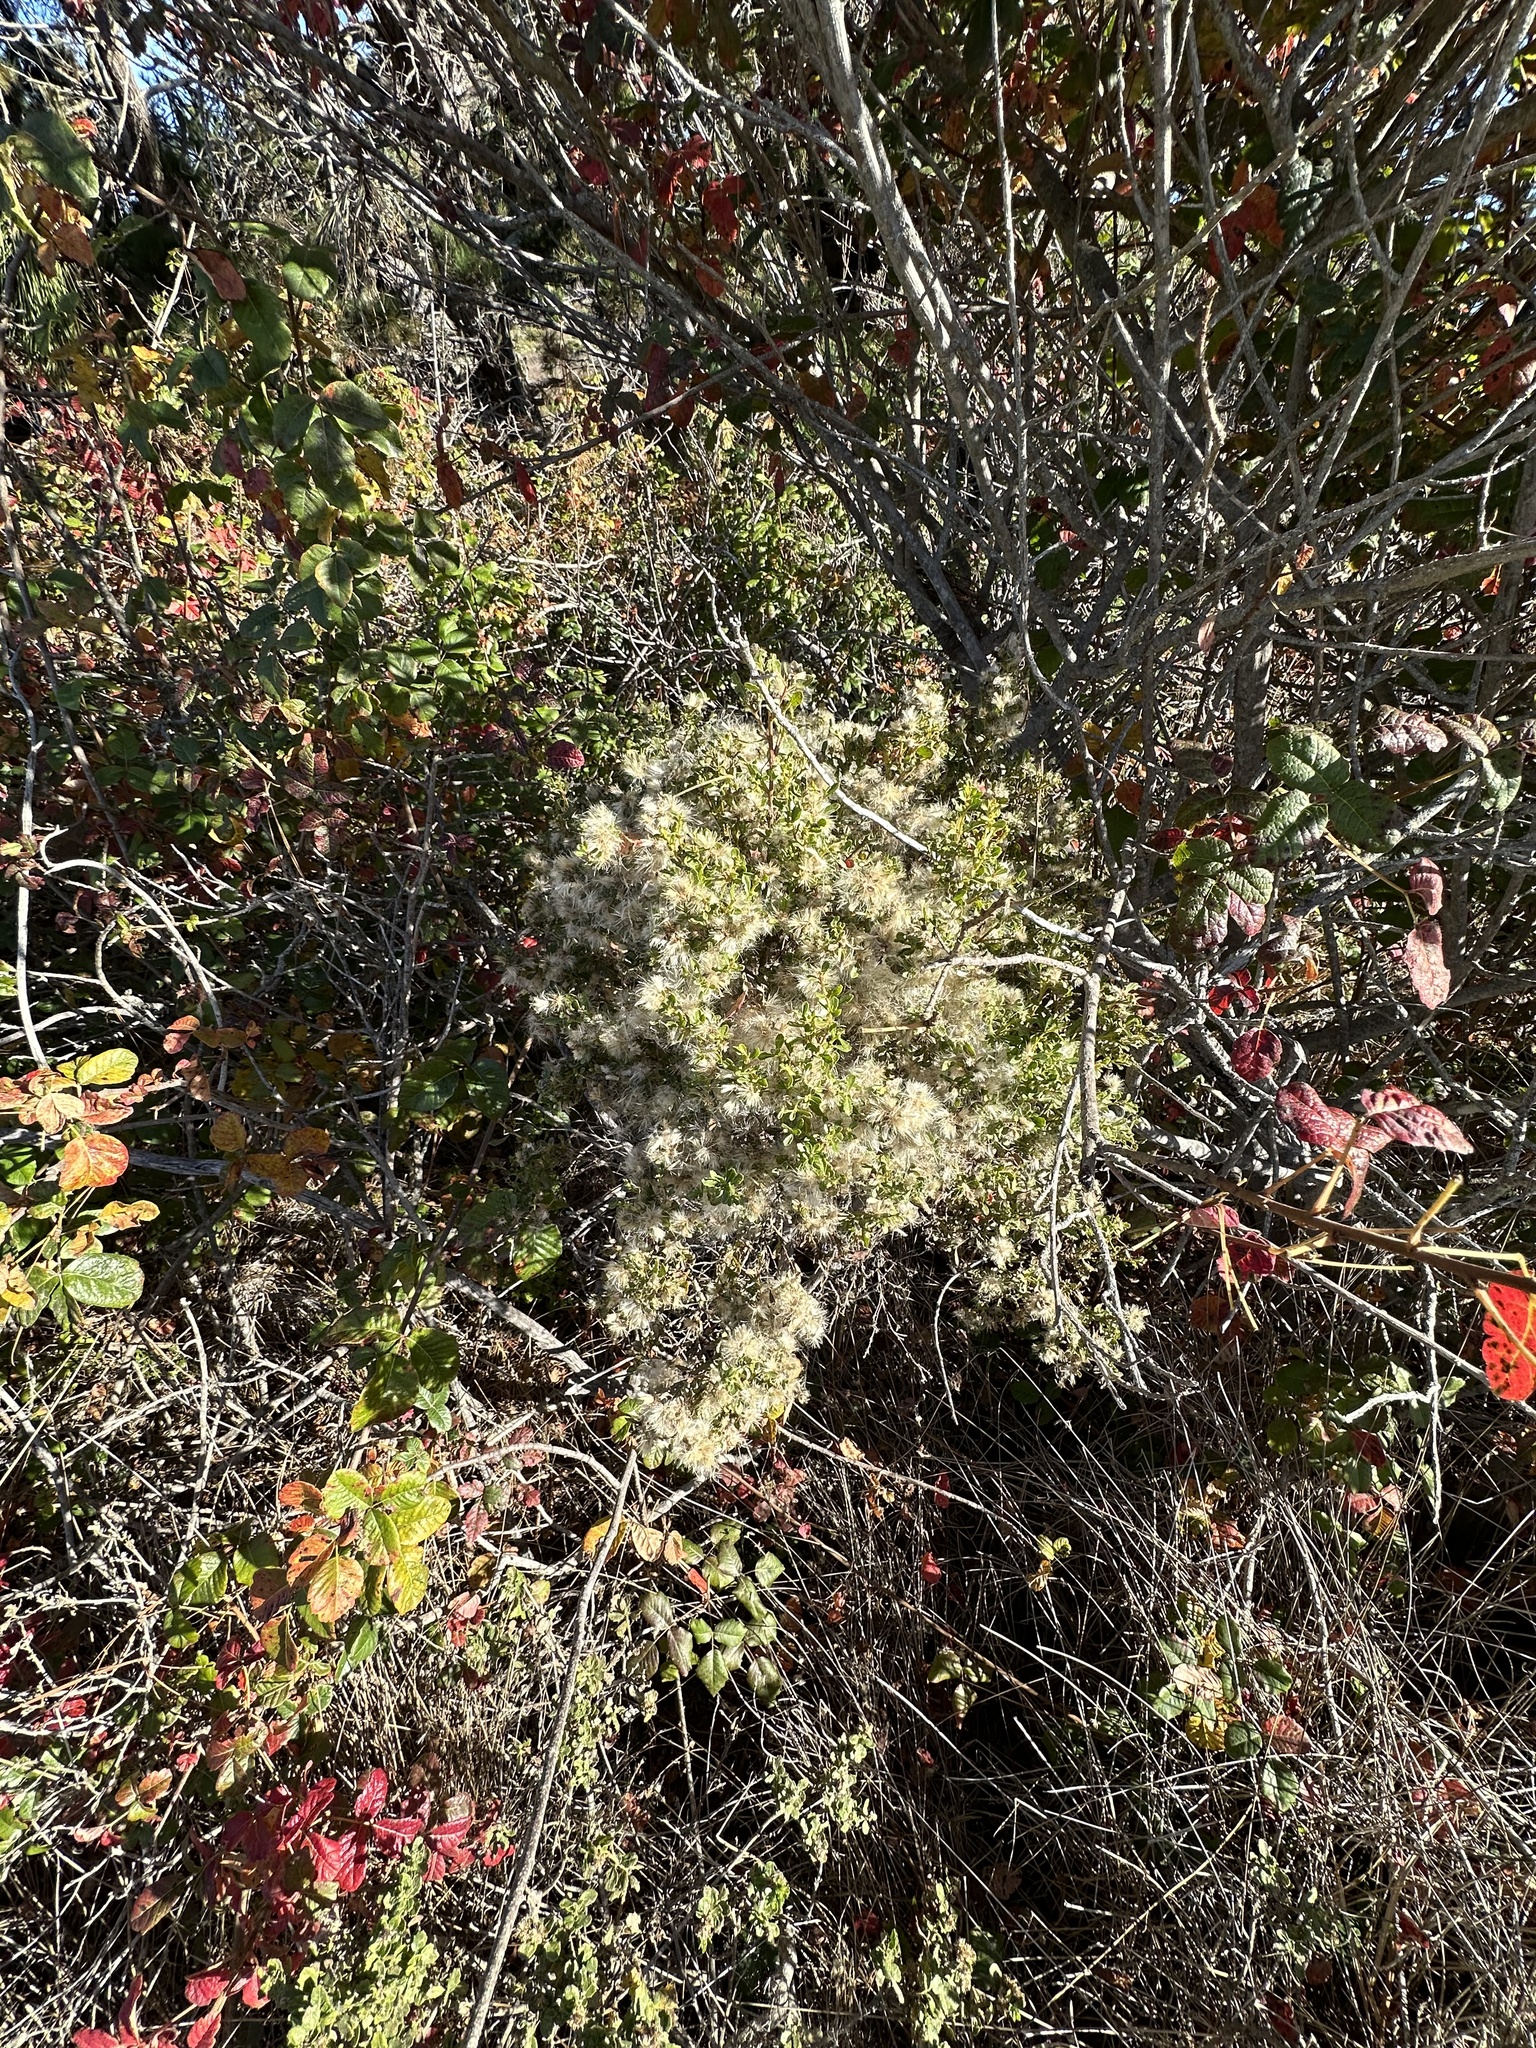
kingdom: Plantae
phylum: Tracheophyta
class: Magnoliopsida
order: Asterales
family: Asteraceae
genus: Baccharis
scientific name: Baccharis pilularis
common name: Coyotebrush
